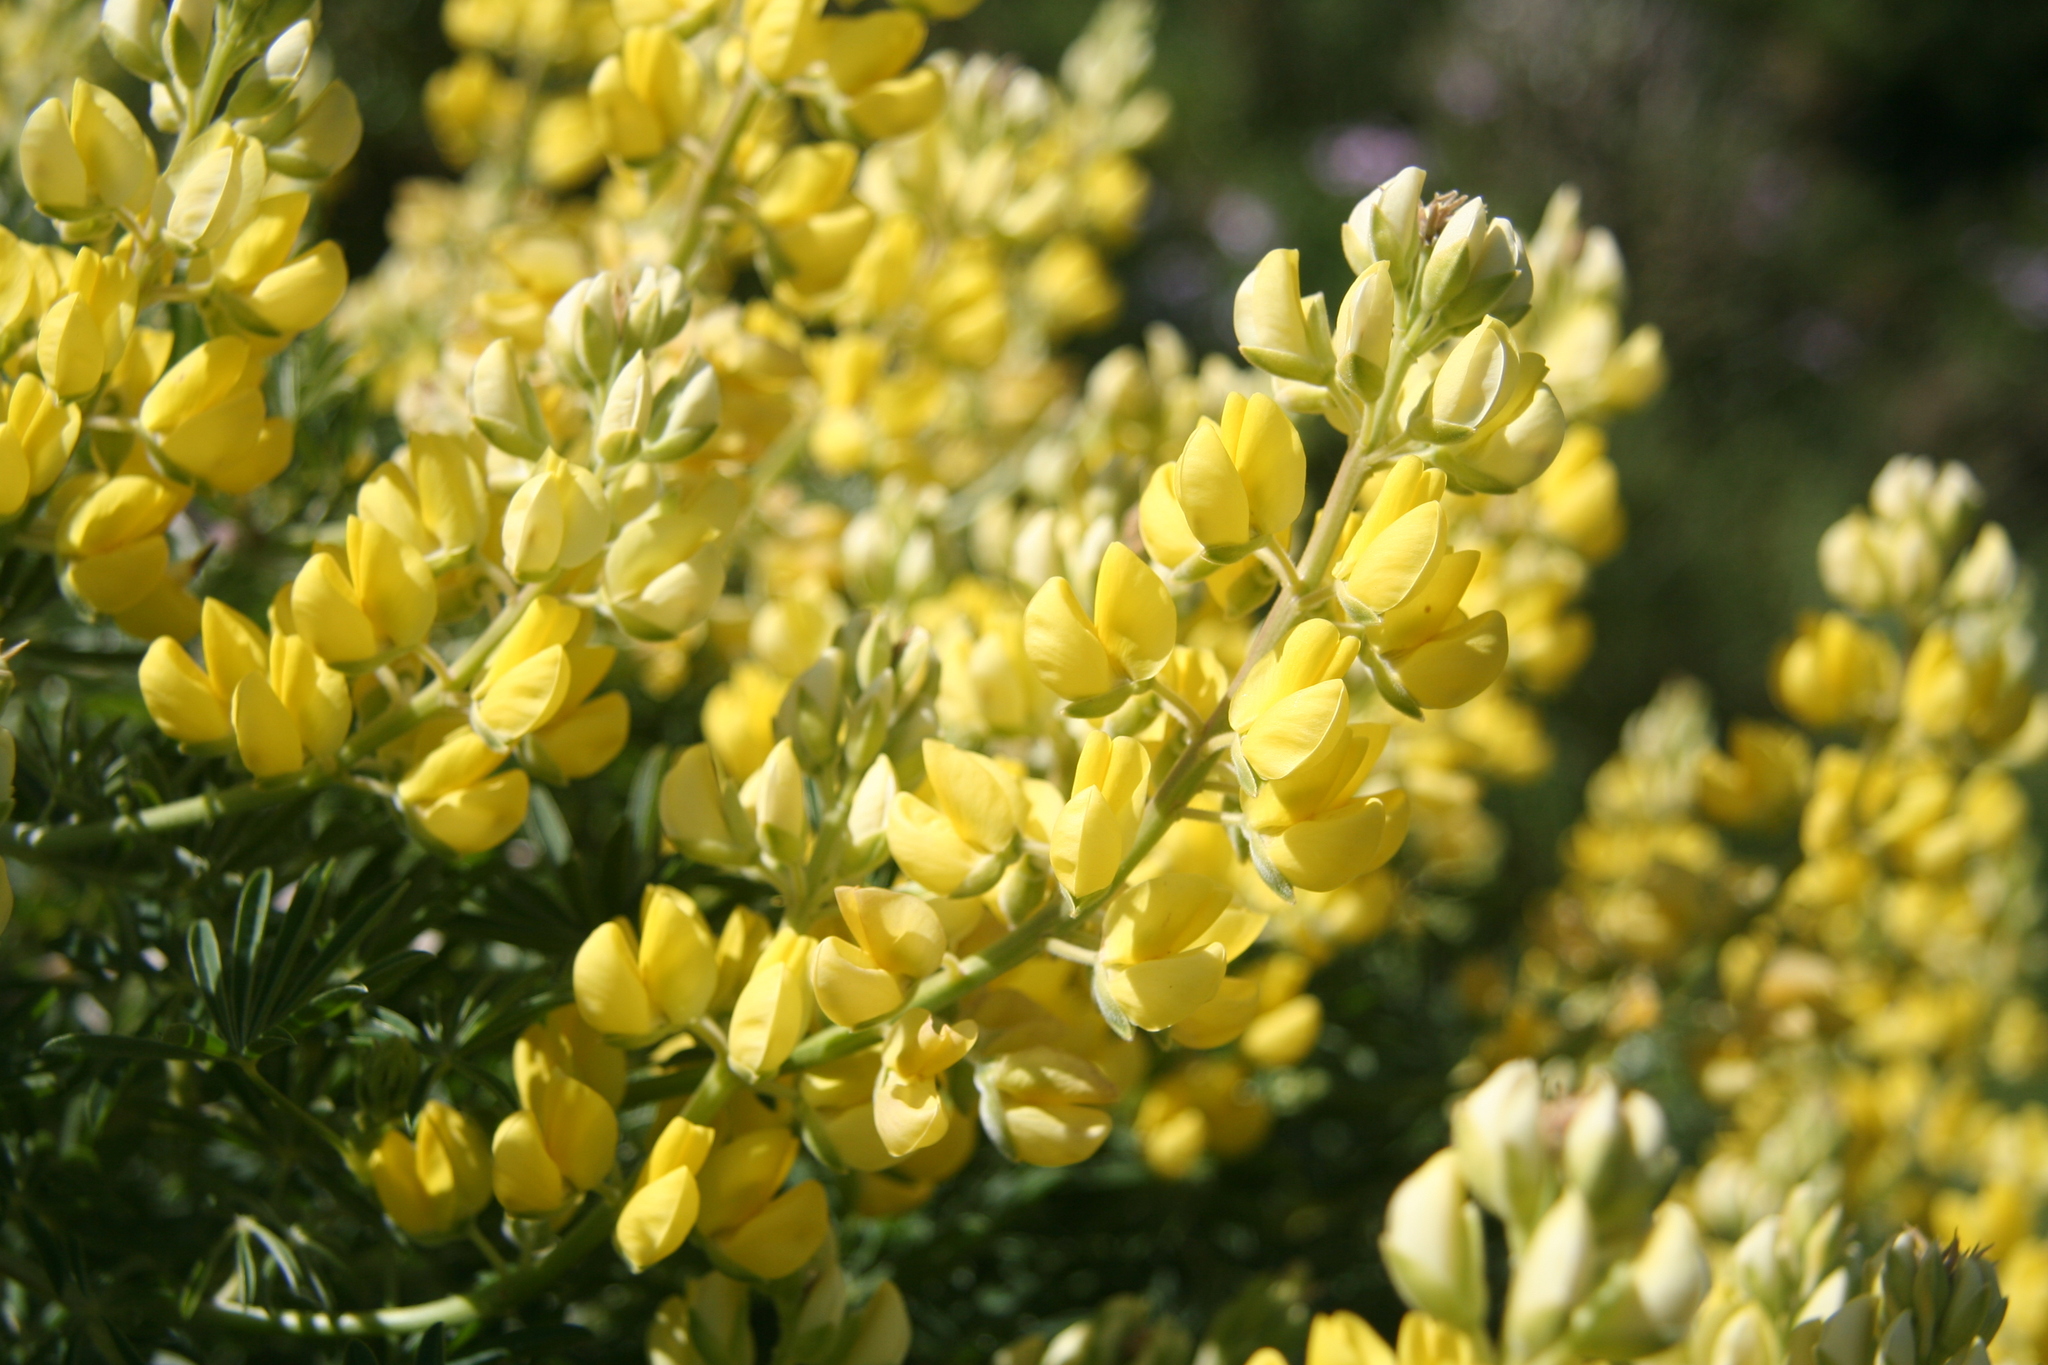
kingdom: Plantae
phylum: Tracheophyta
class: Magnoliopsida
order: Fabales
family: Fabaceae
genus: Lupinus
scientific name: Lupinus arboreus
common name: Yellow bush lupine
